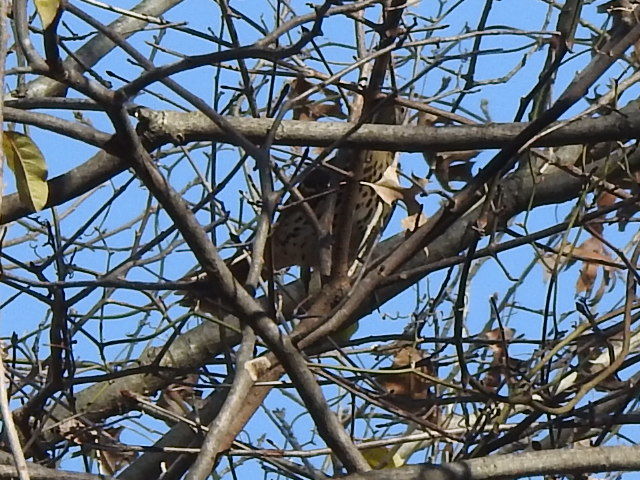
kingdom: Animalia
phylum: Chordata
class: Aves
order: Passeriformes
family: Mimidae
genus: Toxostoma
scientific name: Toxostoma rufum
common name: Brown thrasher
